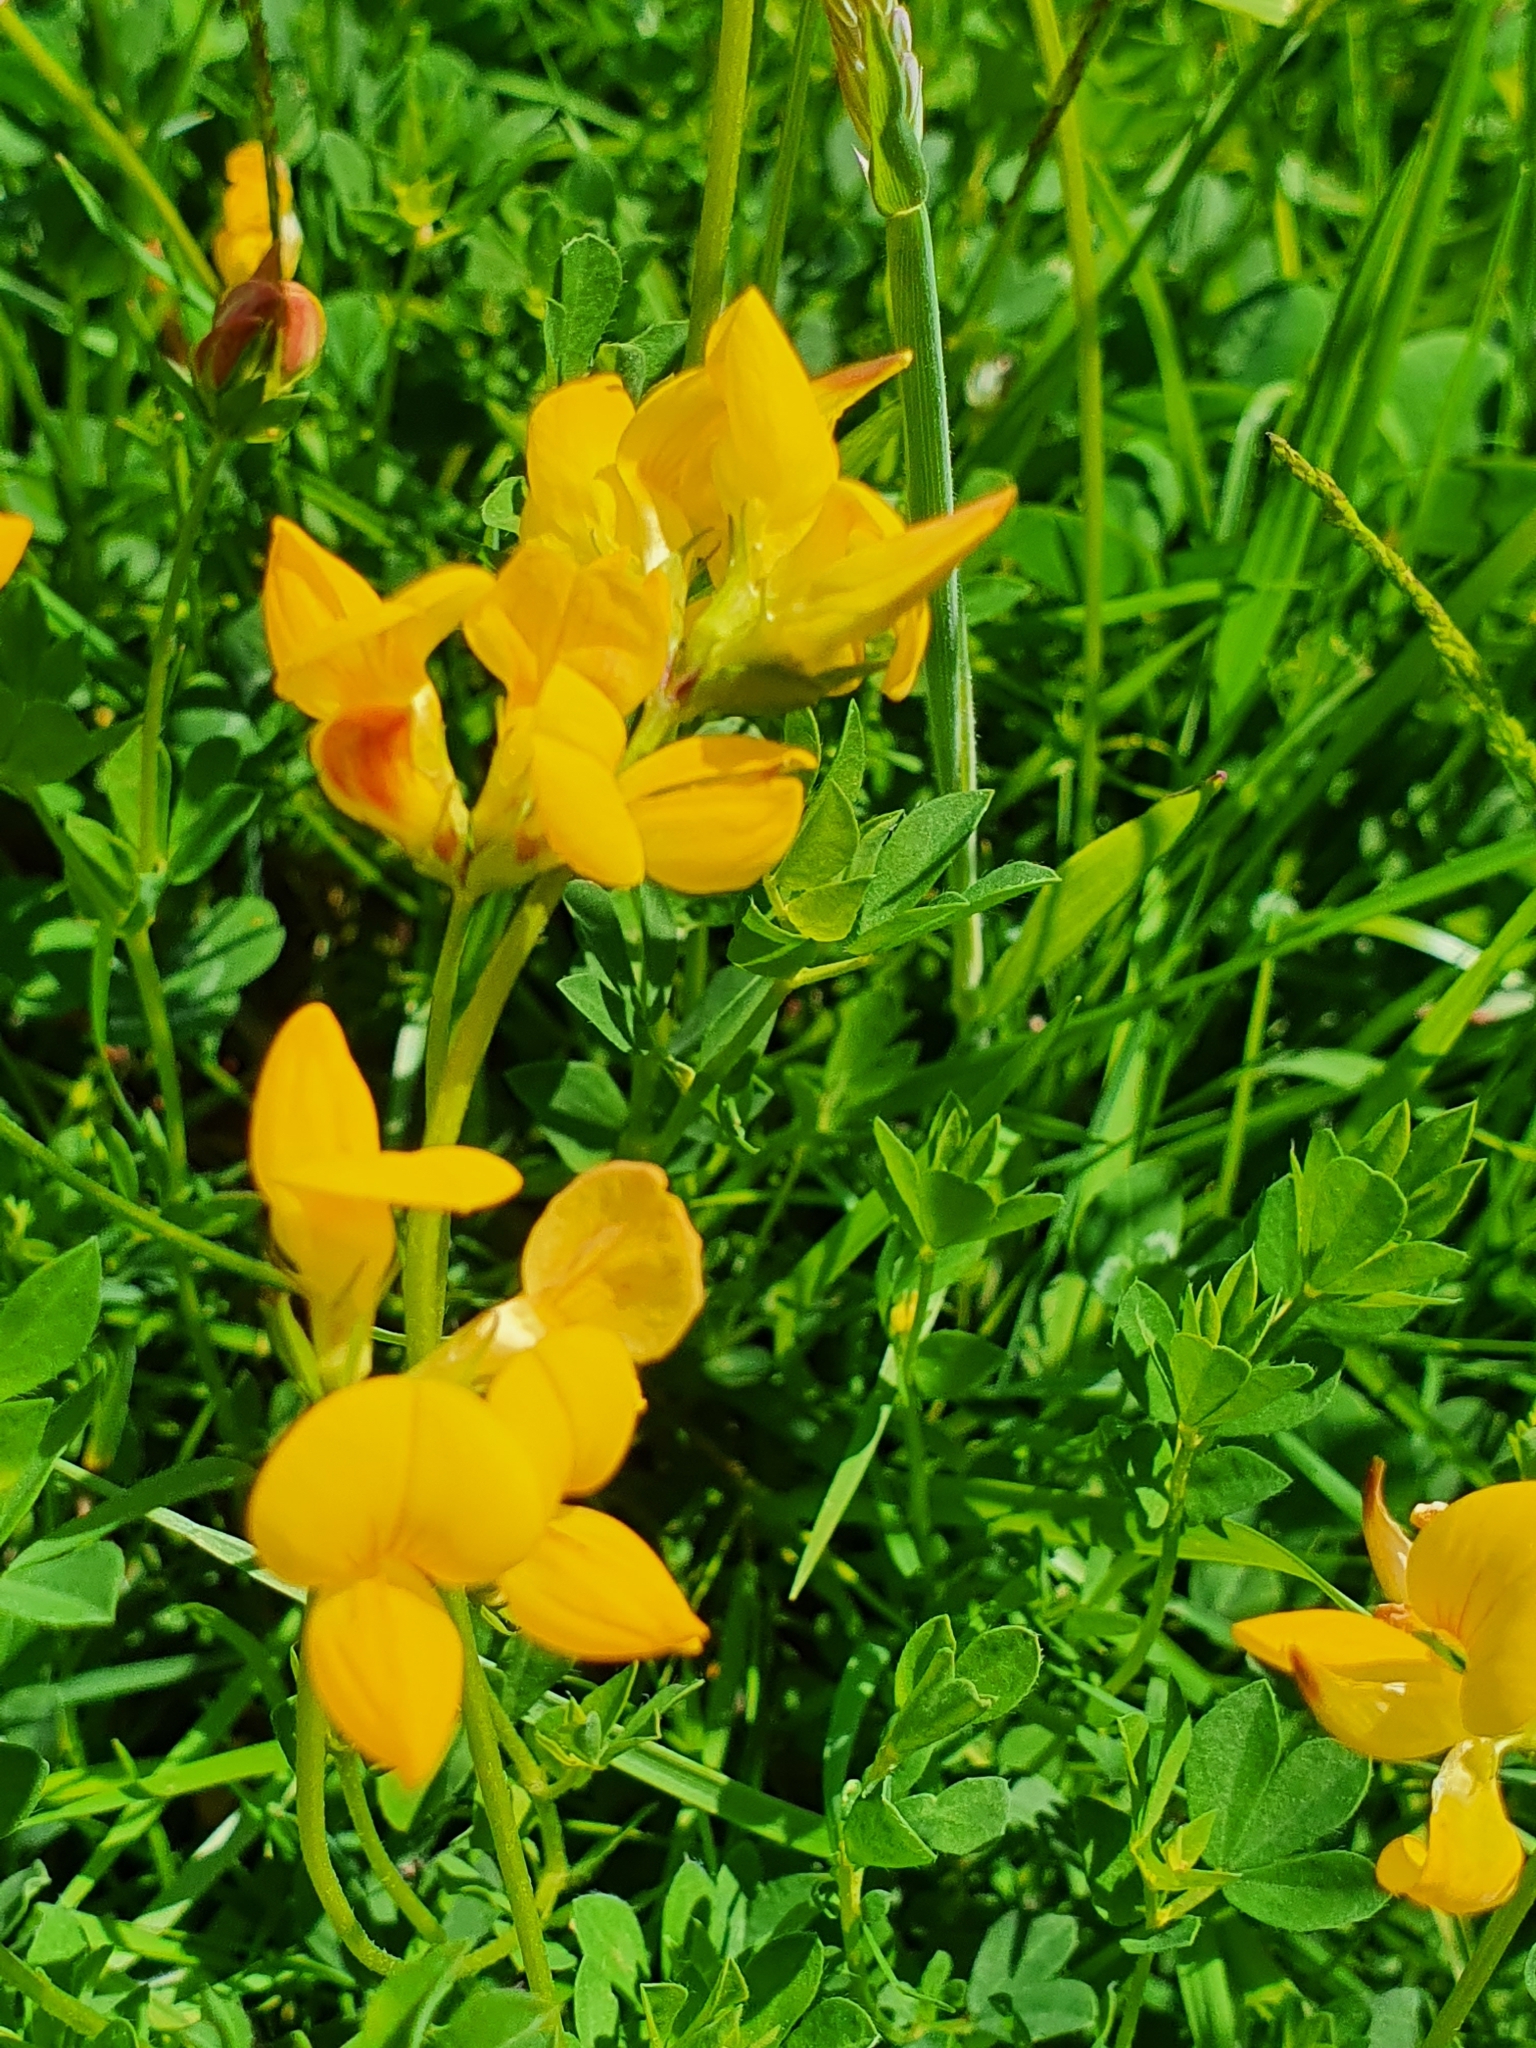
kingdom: Plantae
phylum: Tracheophyta
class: Magnoliopsida
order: Fabales
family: Fabaceae
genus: Lotus
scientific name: Lotus corniculatus
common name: Common bird's-foot-trefoil
